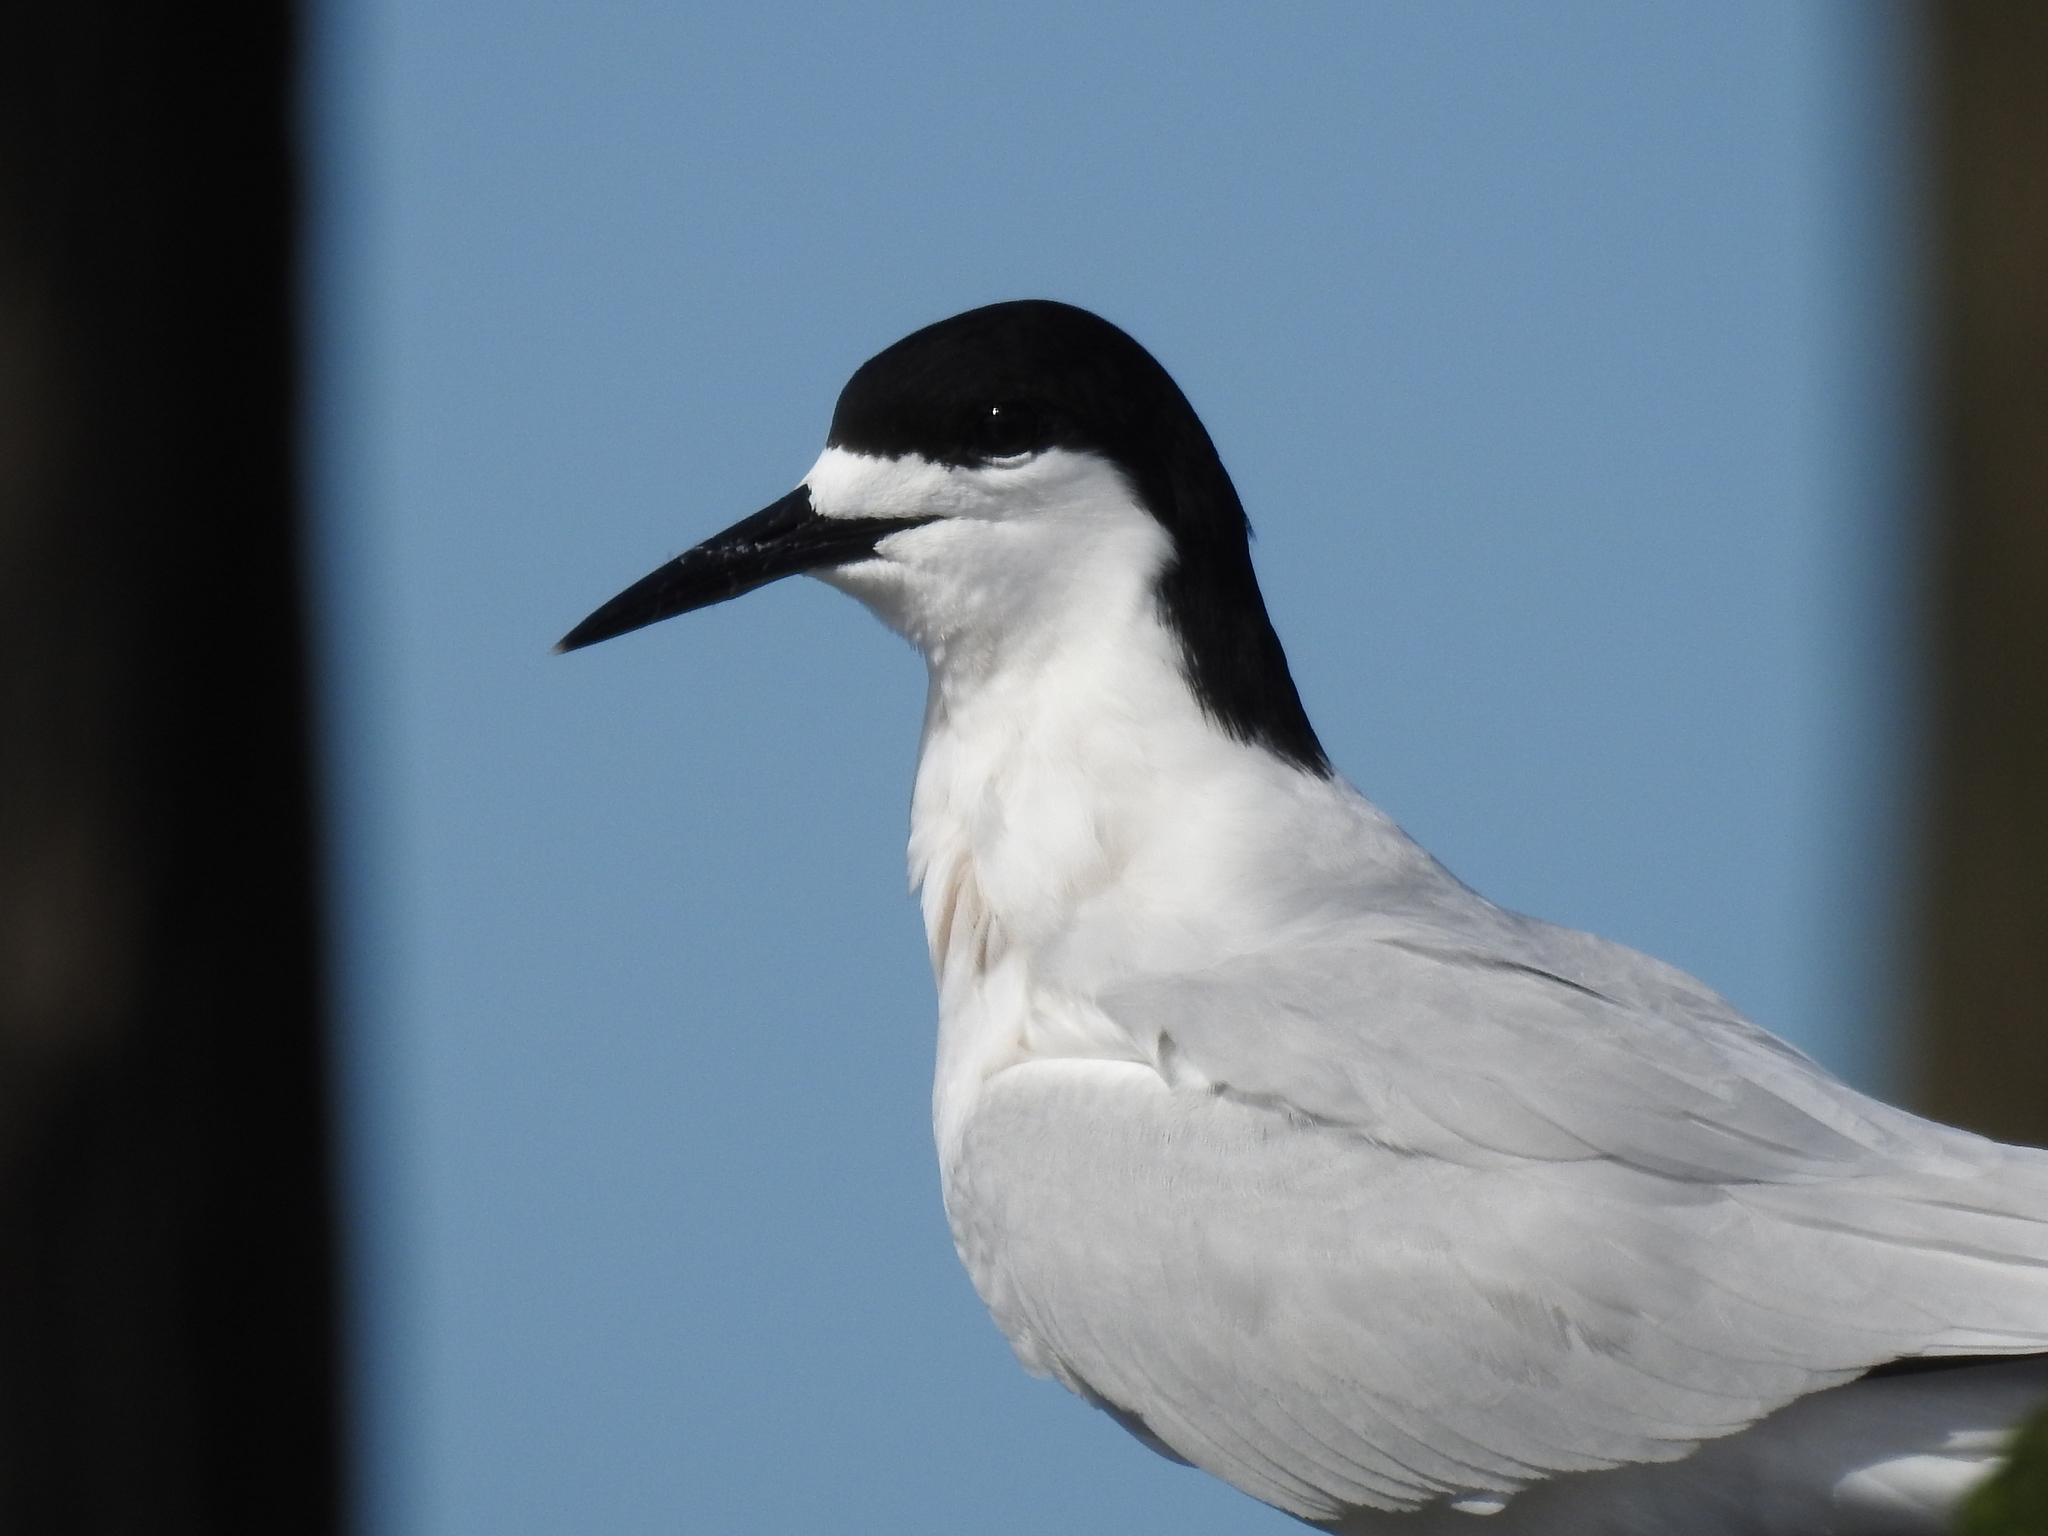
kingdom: Animalia
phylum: Chordata
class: Aves
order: Charadriiformes
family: Laridae
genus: Sterna
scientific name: Sterna striata
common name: White-fronted tern
